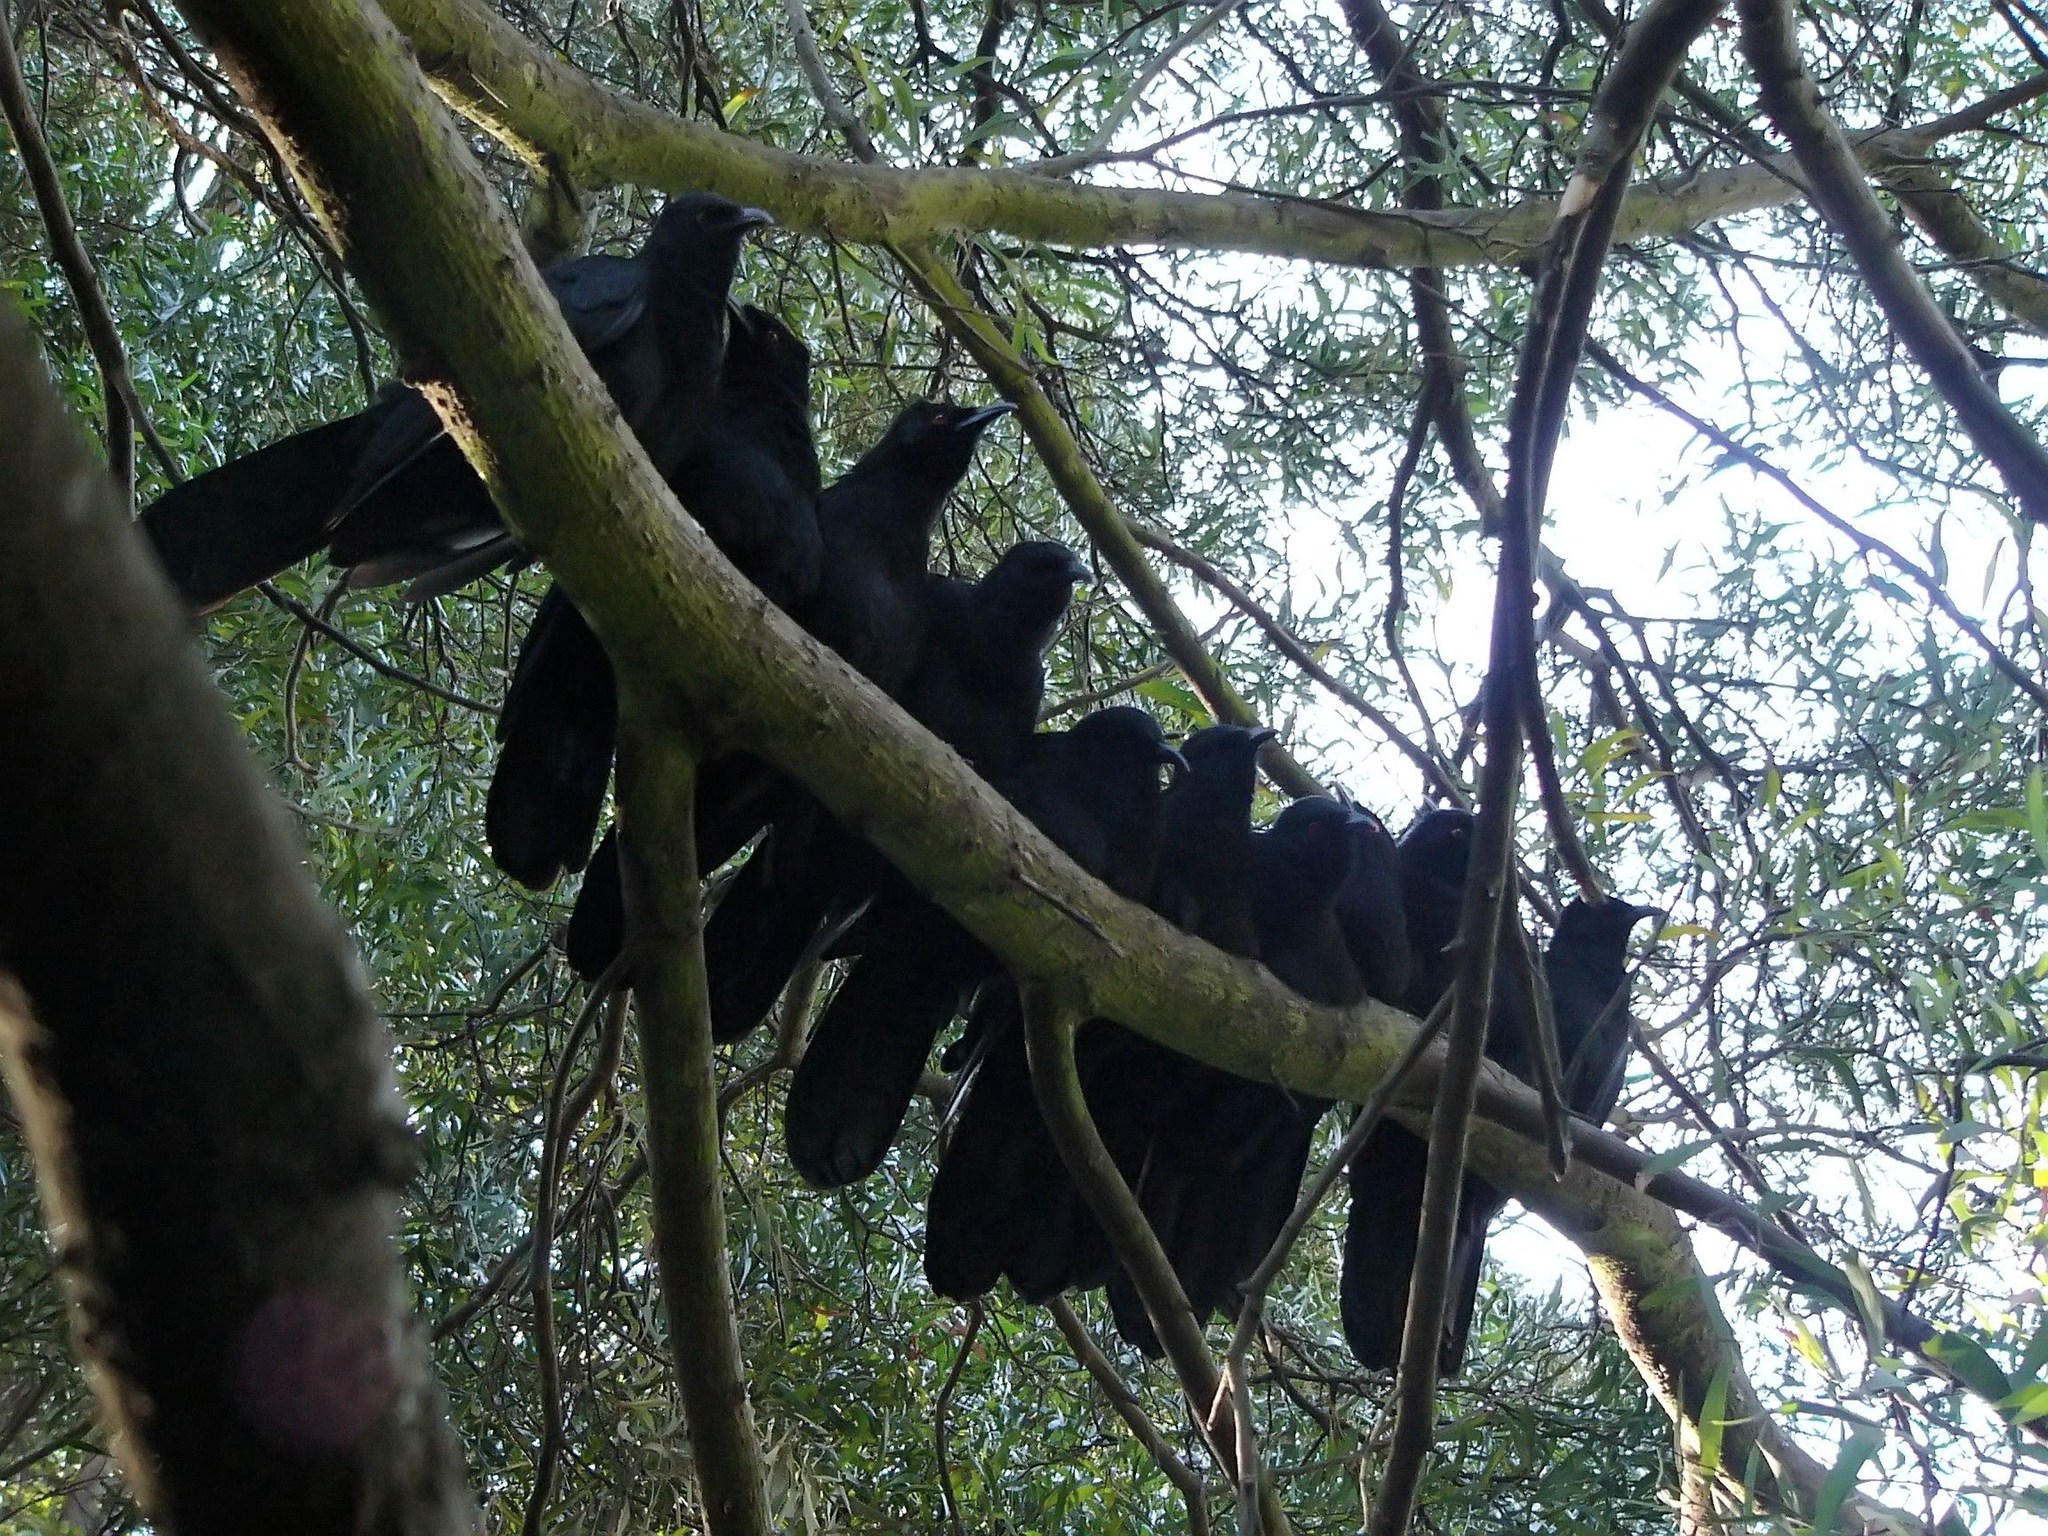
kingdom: Animalia
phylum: Chordata
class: Aves
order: Passeriformes
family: Corcoracidae
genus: Corcorax
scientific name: Corcorax melanoramphos
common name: White-winged chough
